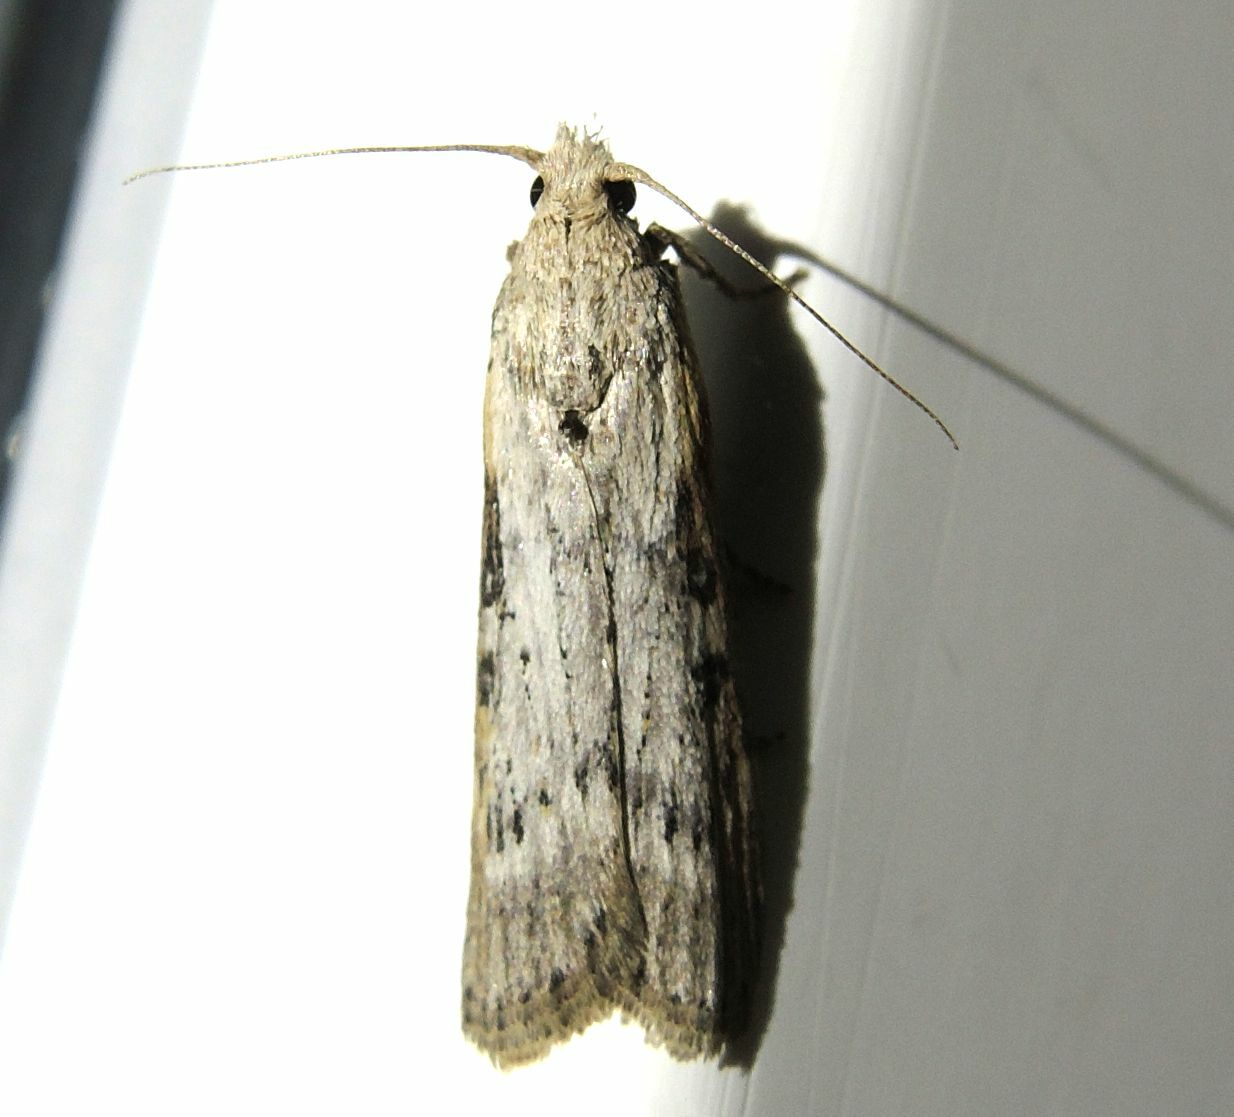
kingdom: Animalia
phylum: Arthropoda
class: Insecta
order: Lepidoptera
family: Pyralidae
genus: Lamoria
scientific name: Lamoria anella
